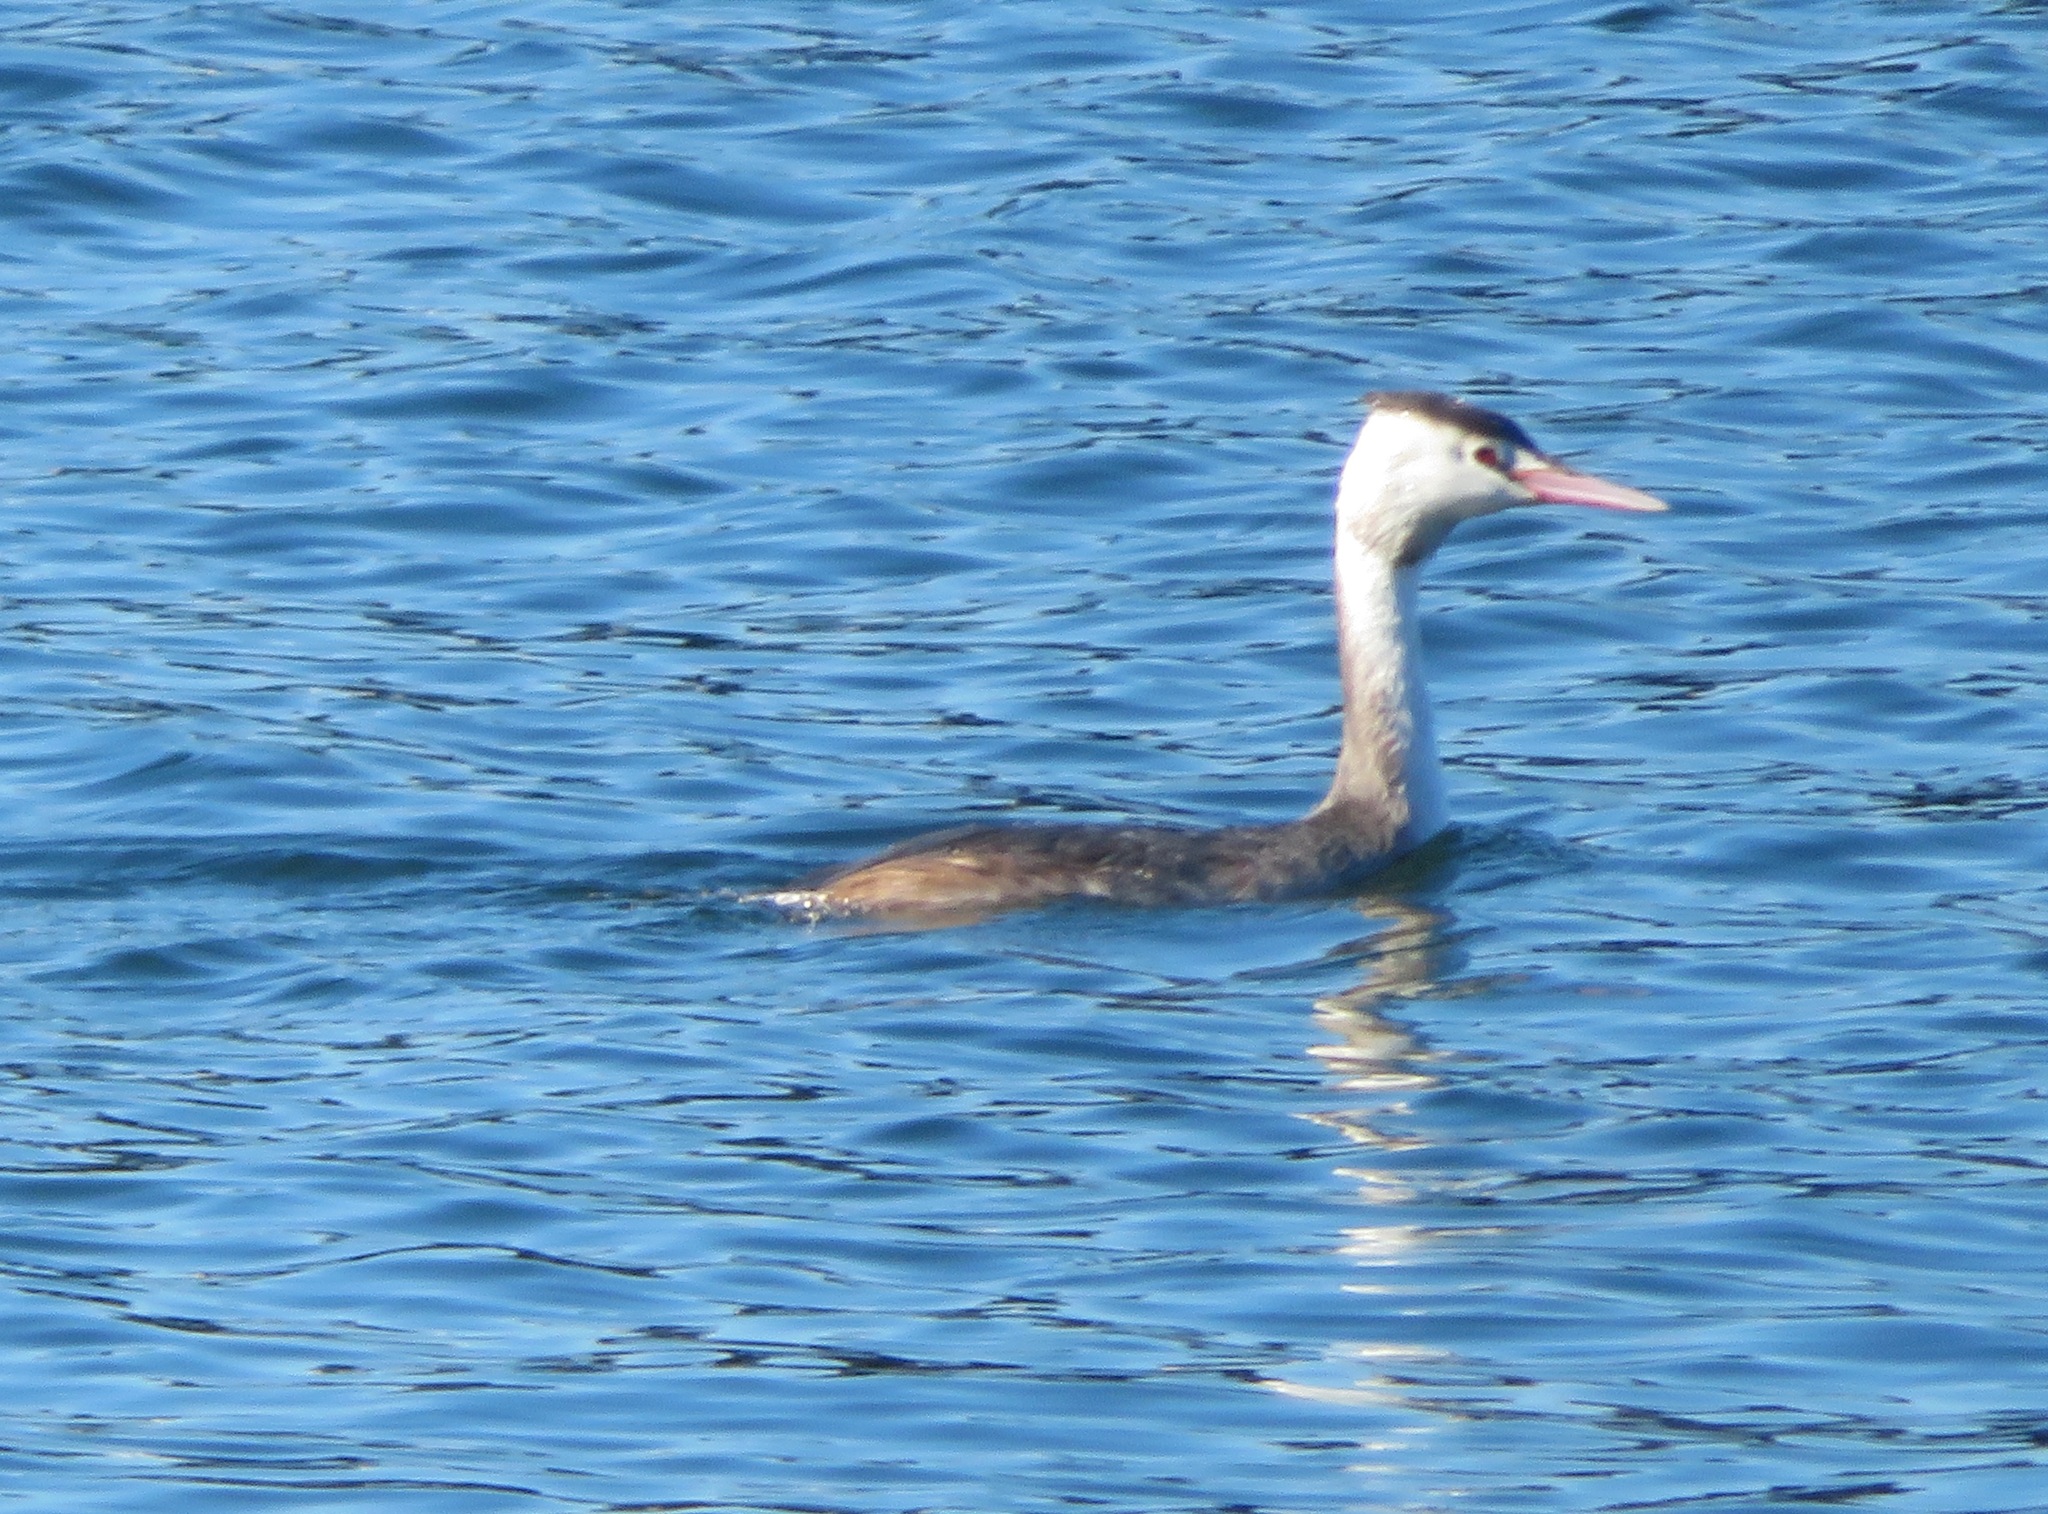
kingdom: Animalia
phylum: Chordata
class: Aves
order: Podicipediformes
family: Podicipedidae
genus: Podiceps
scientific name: Podiceps cristatus
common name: Great crested grebe
